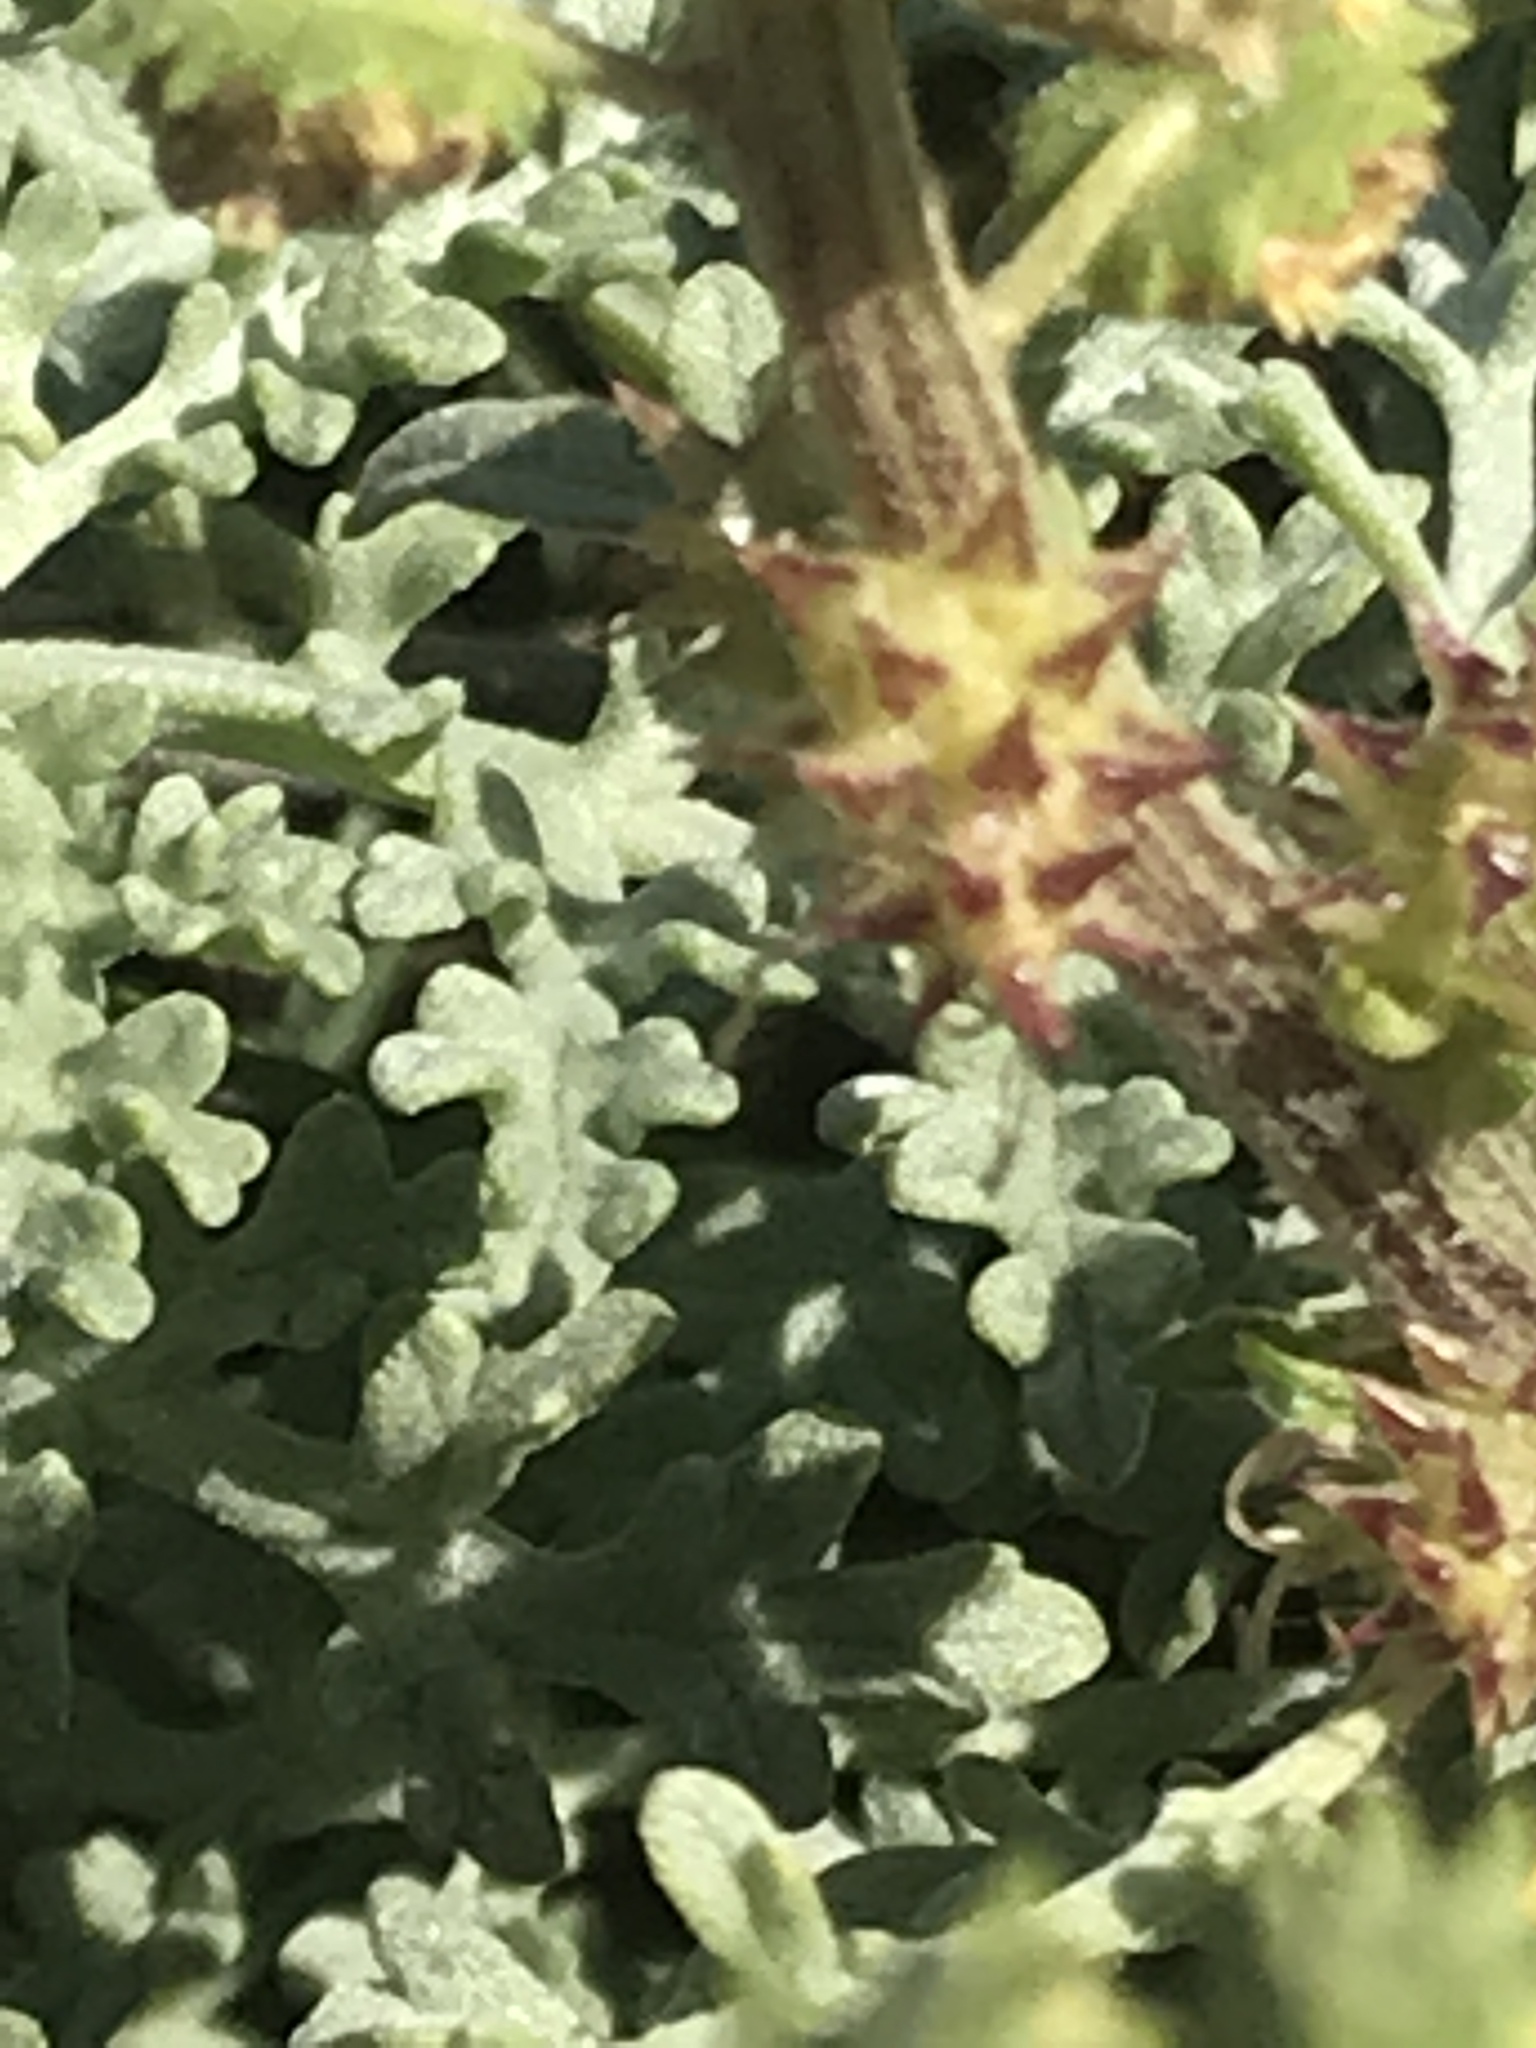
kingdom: Plantae
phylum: Tracheophyta
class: Magnoliopsida
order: Asterales
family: Asteraceae
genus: Ambrosia
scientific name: Ambrosia chamissonis
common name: Beachbur
